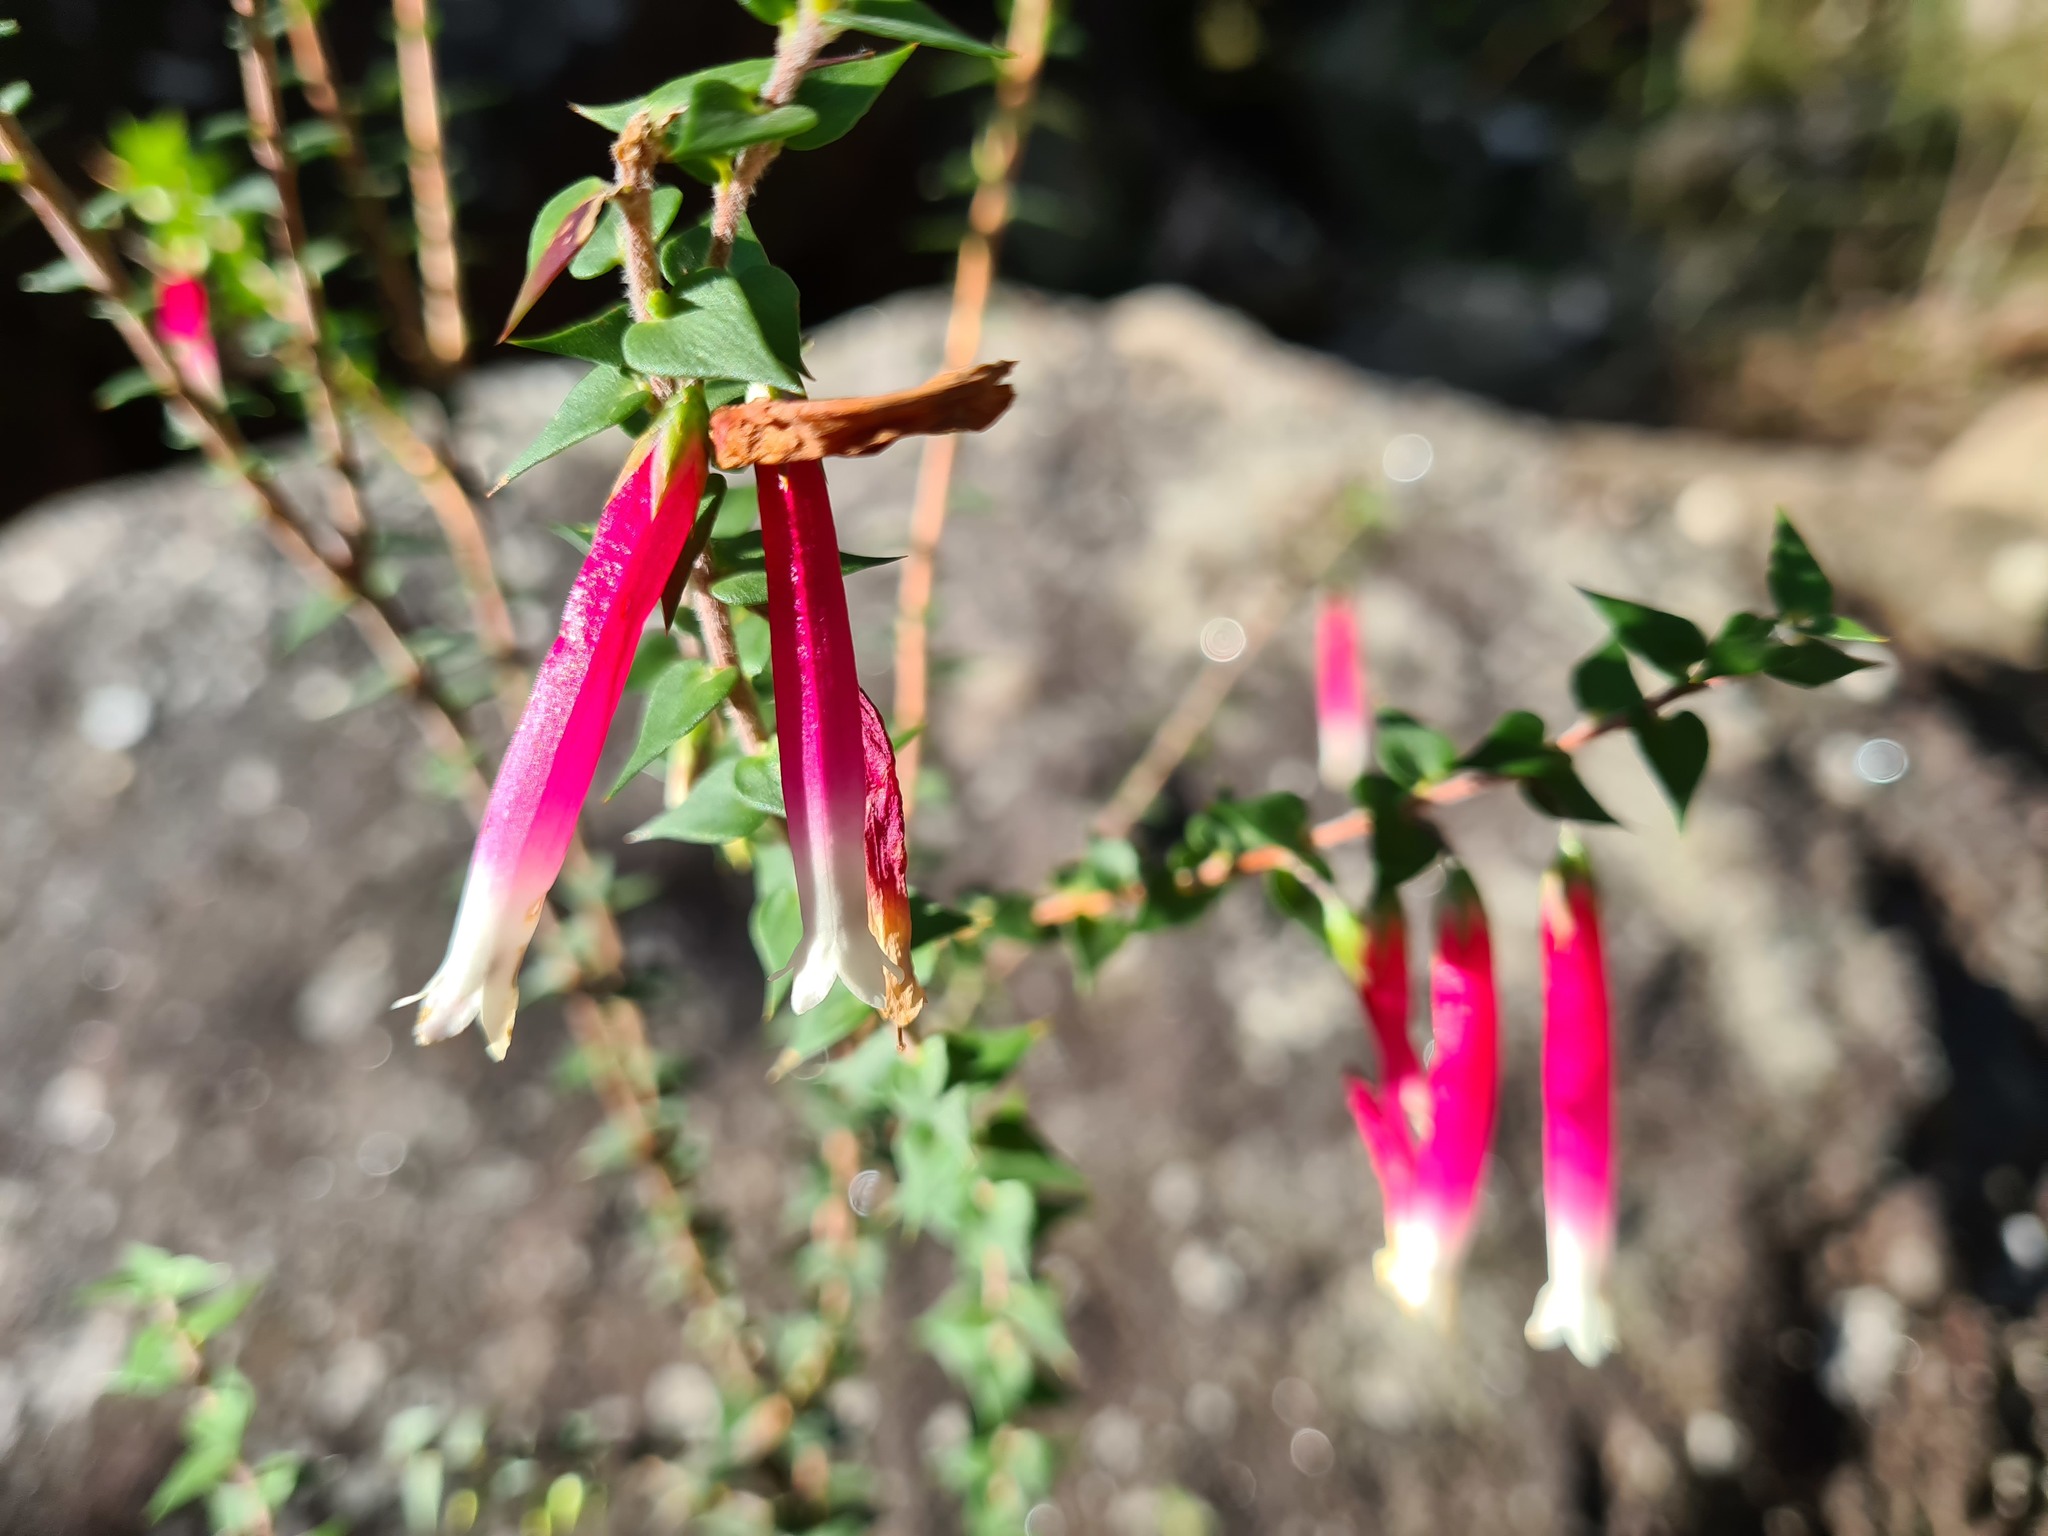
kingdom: Plantae
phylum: Tracheophyta
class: Magnoliopsida
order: Ericales
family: Ericaceae
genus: Epacris
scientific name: Epacris longiflora
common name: Fuchsia-heath
